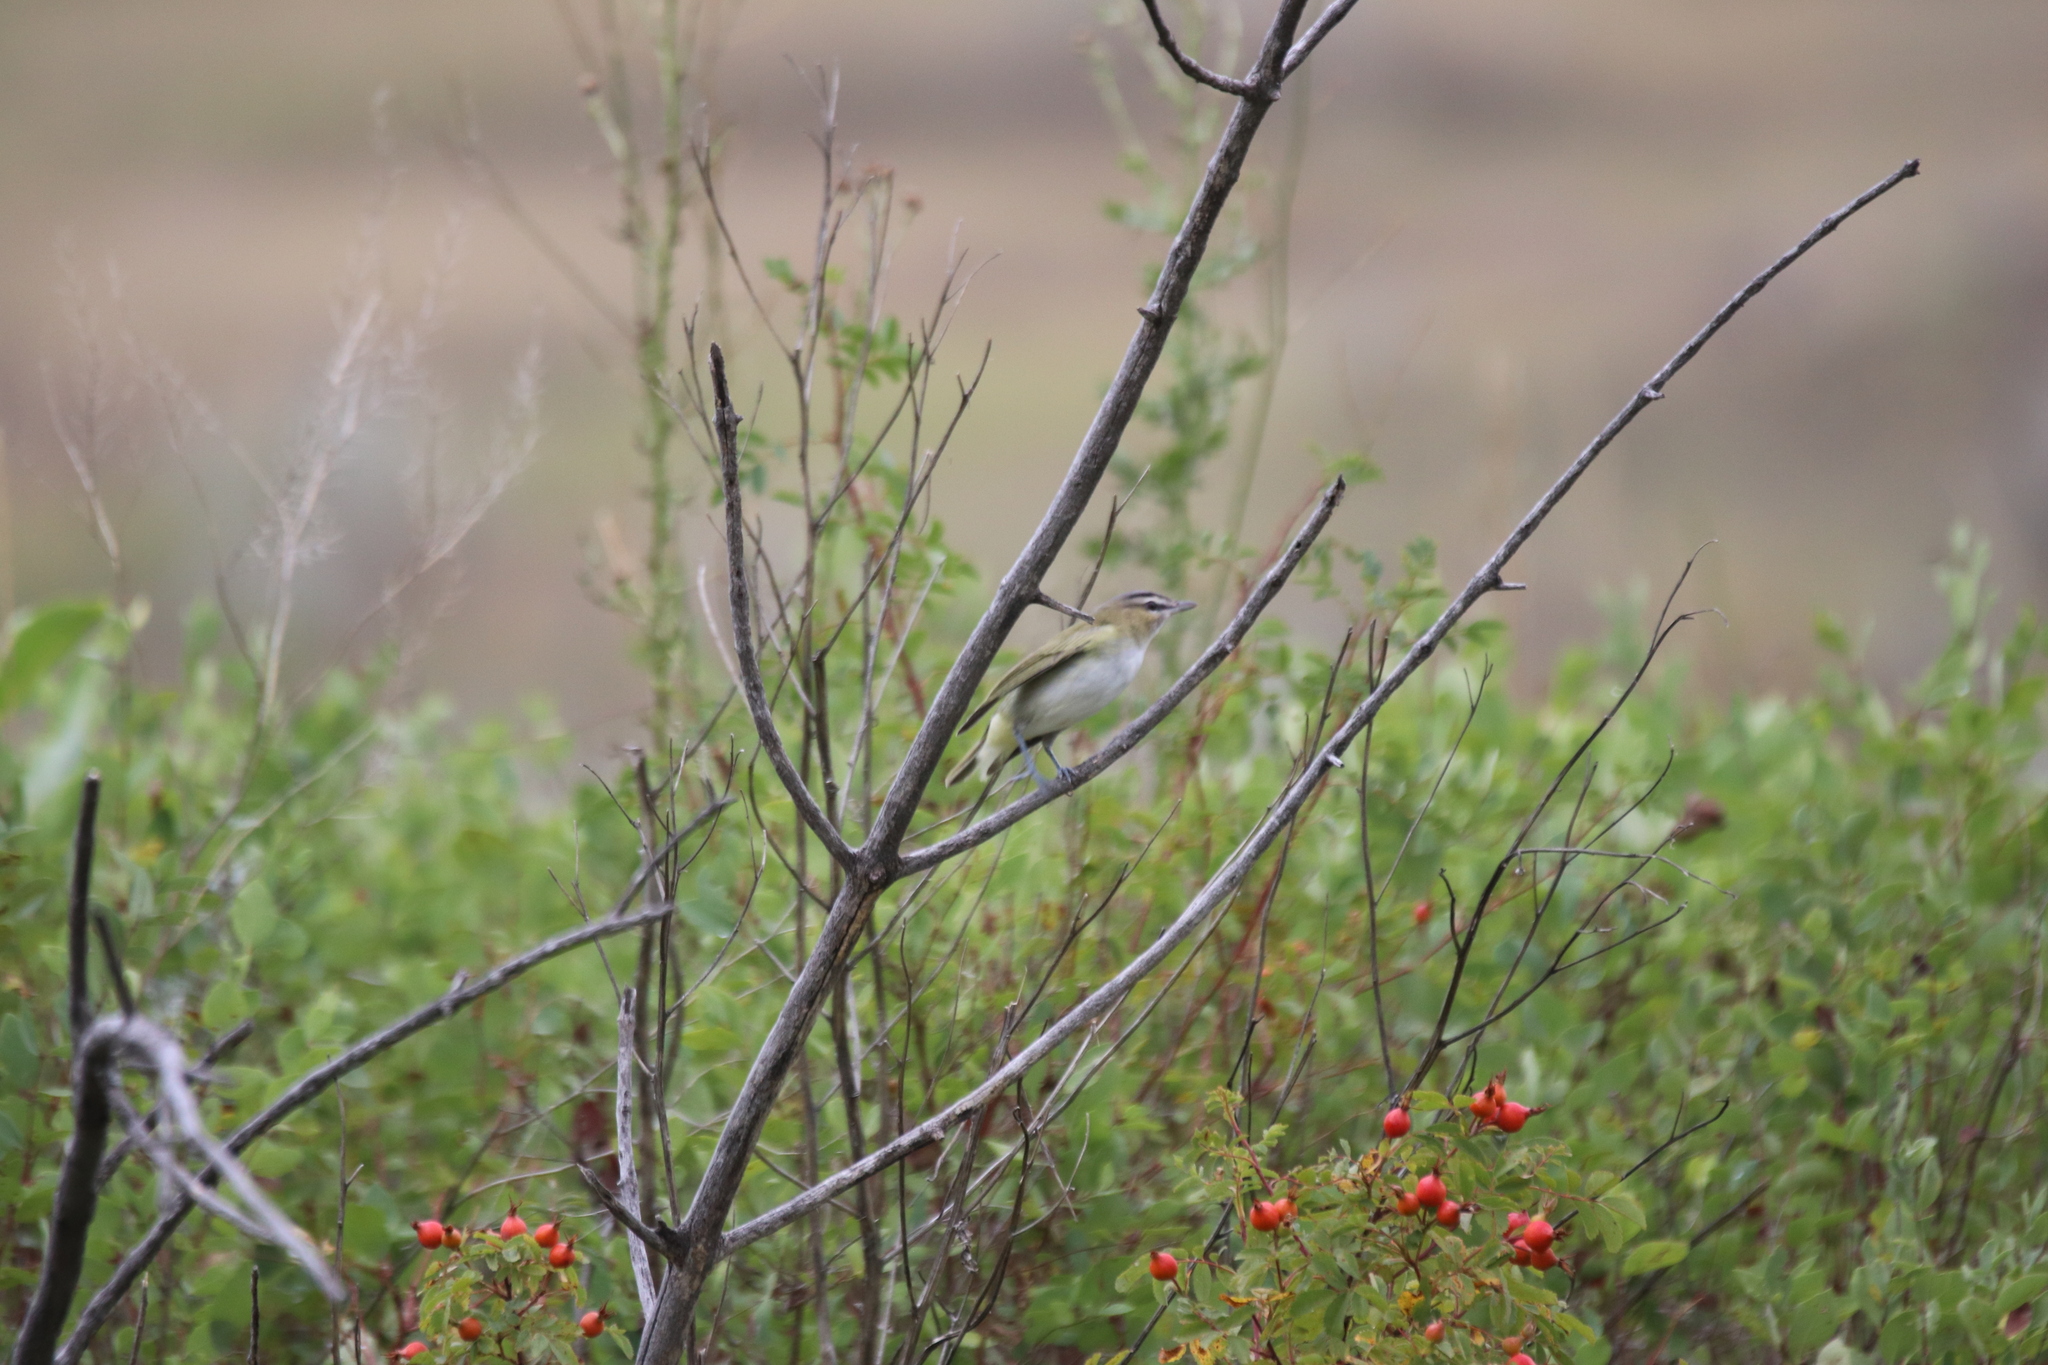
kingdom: Animalia
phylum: Chordata
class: Aves
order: Passeriformes
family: Vireonidae
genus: Vireo
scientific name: Vireo olivaceus
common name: Red-eyed vireo
